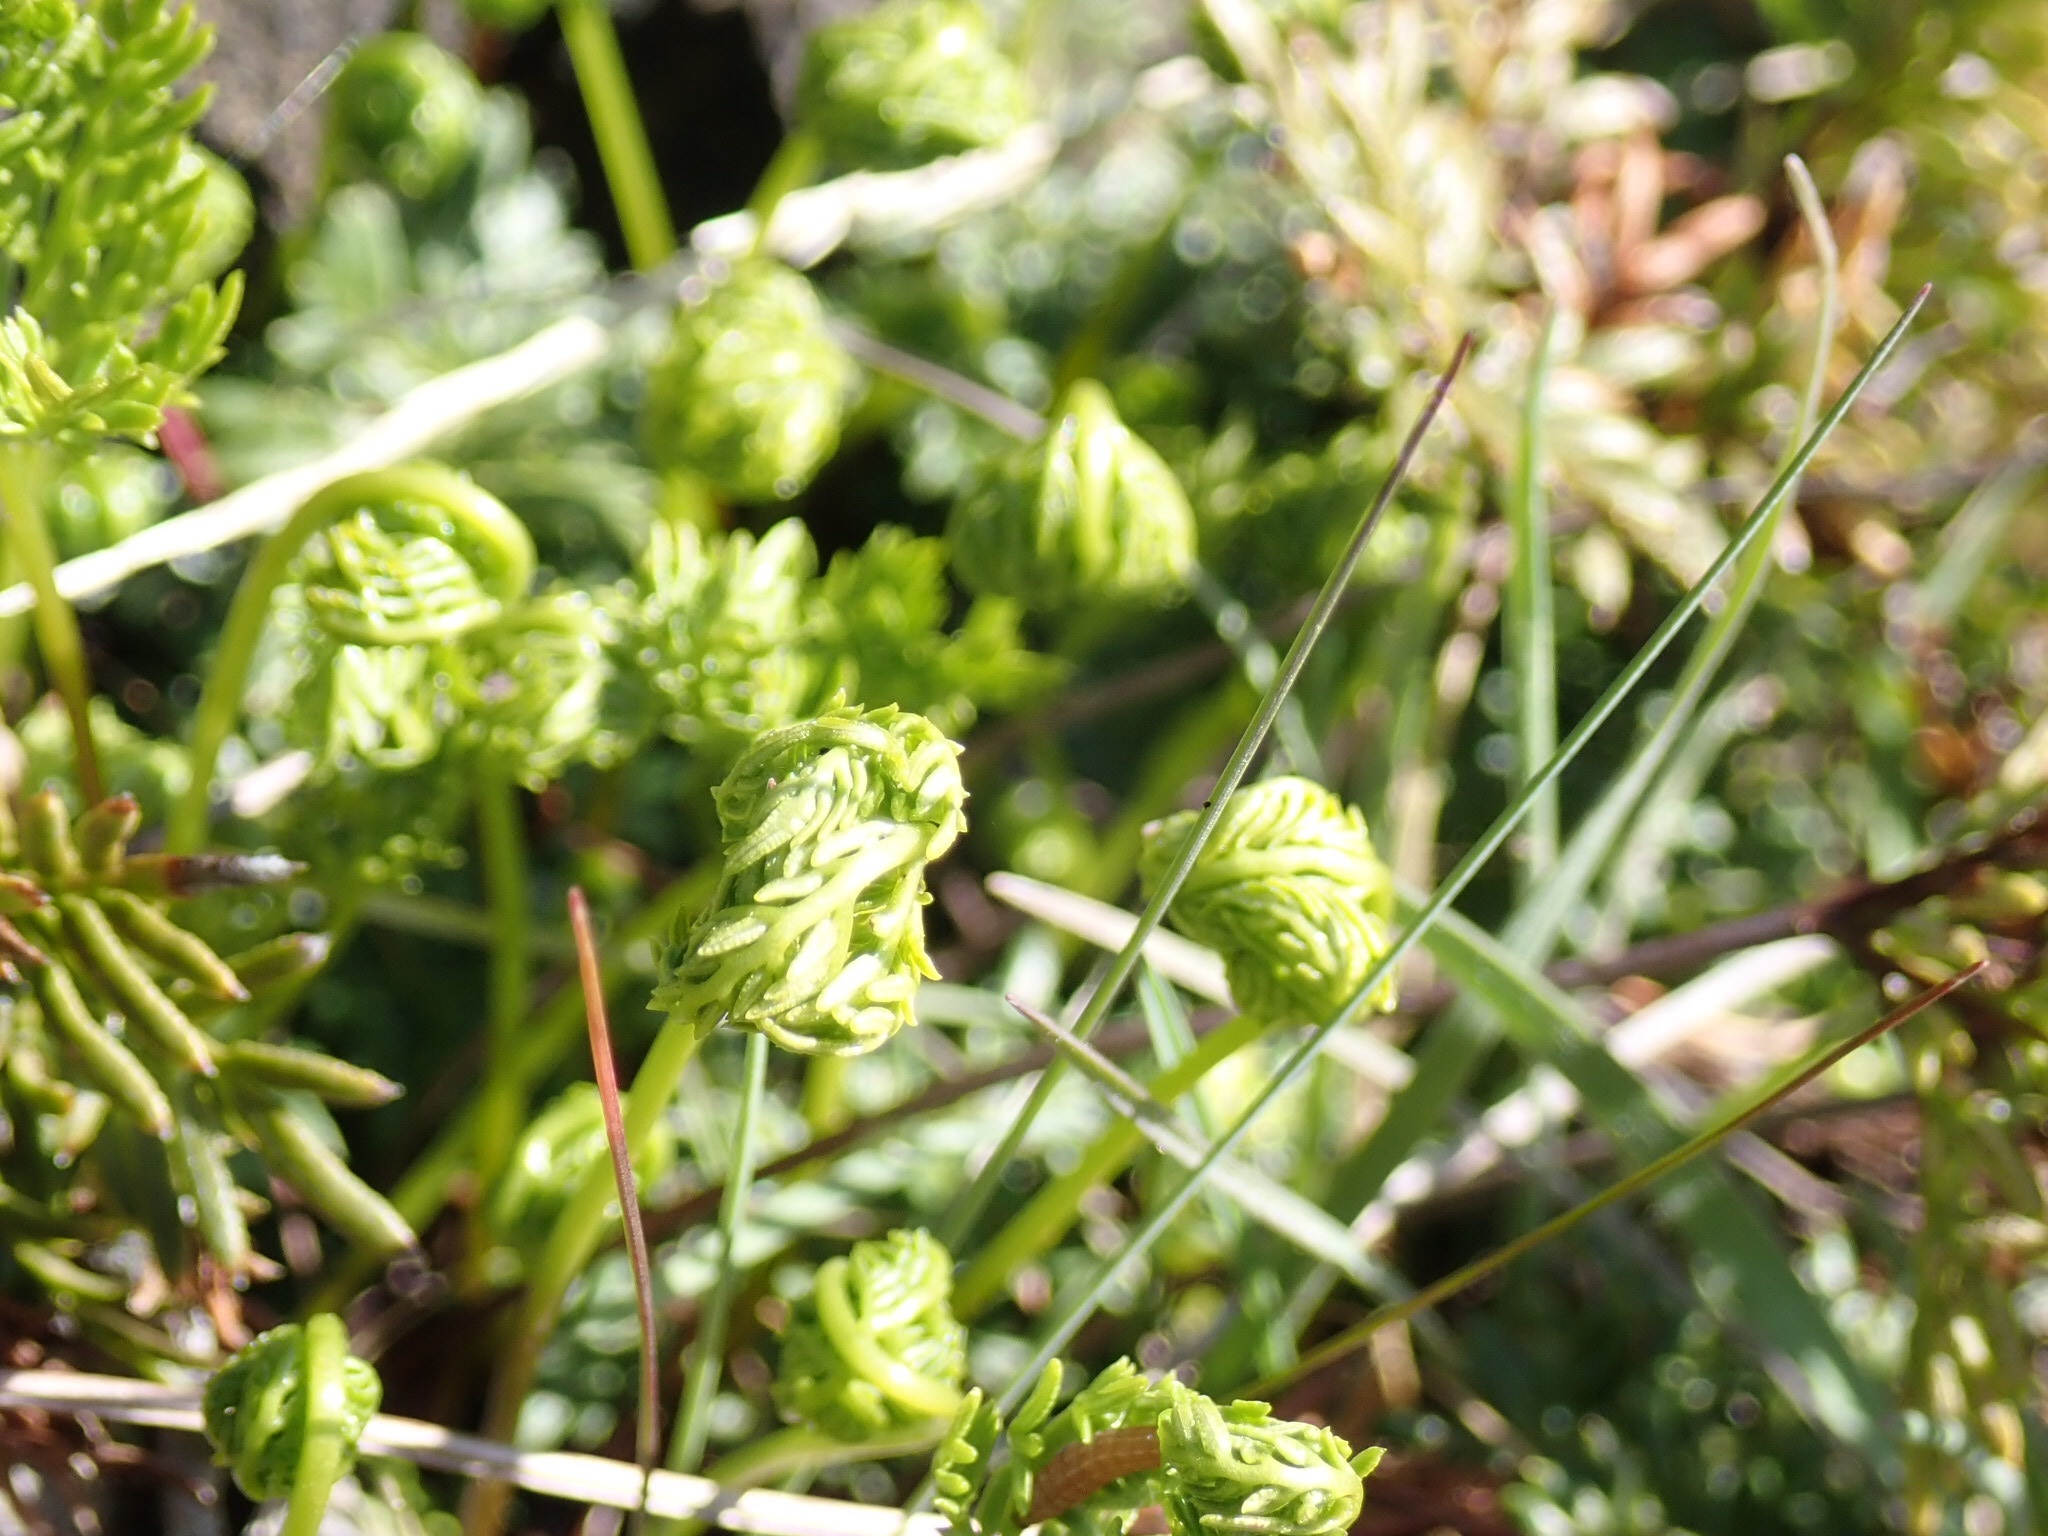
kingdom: Plantae
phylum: Tracheophyta
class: Polypodiopsida
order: Polypodiales
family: Pteridaceae
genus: Aspidotis
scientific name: Aspidotis densa
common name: Indian's dream
